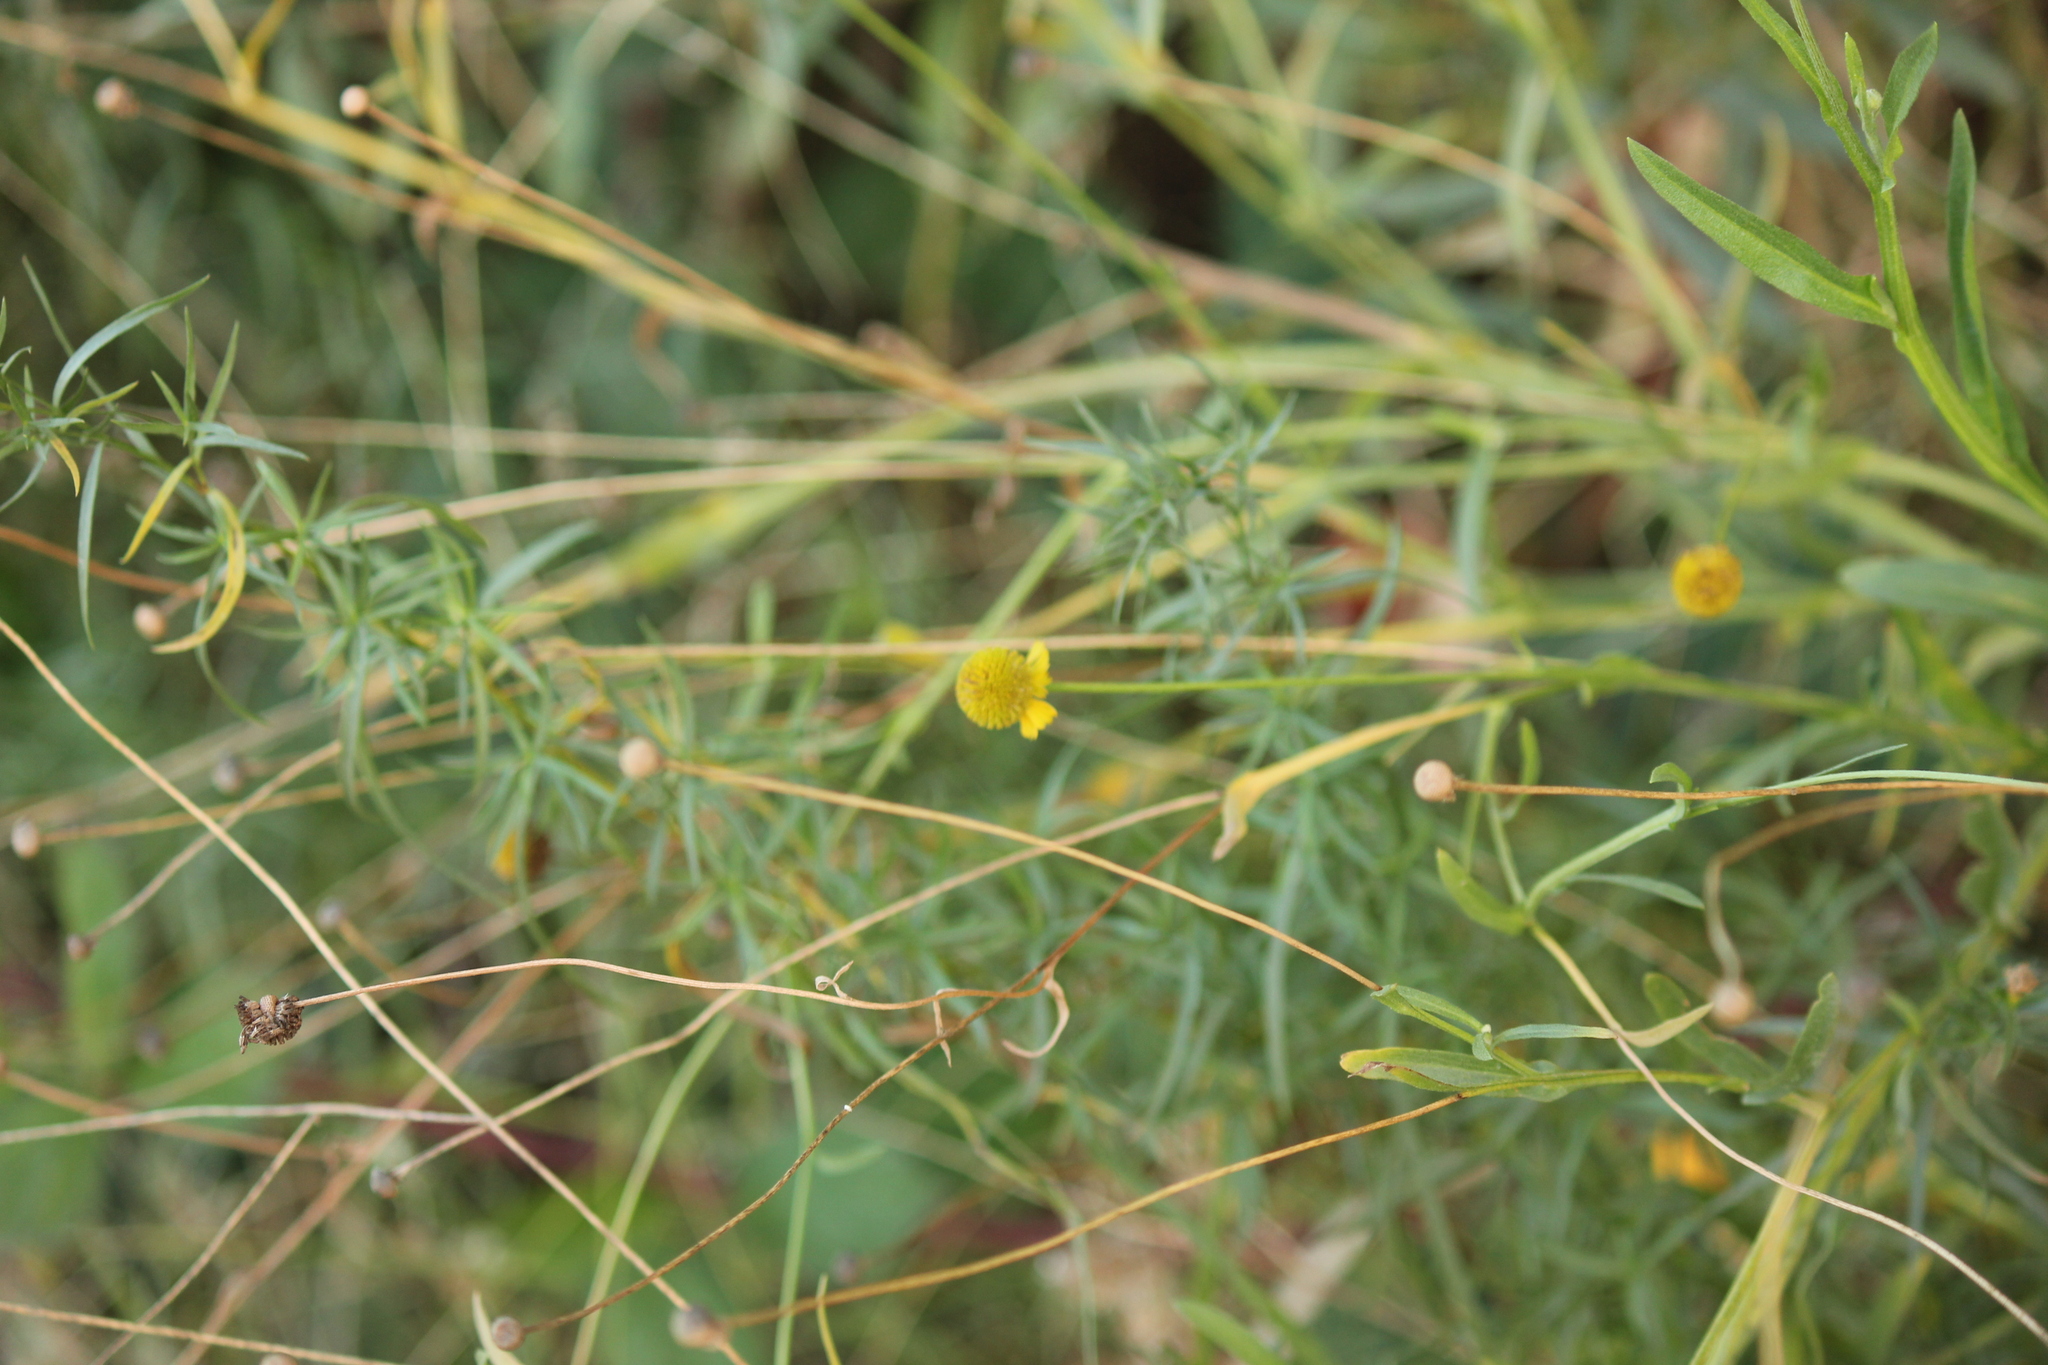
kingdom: Plantae
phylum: Tracheophyta
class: Magnoliopsida
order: Asterales
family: Asteraceae
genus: Helenium
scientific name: Helenium puberulum
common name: Sneezewort
